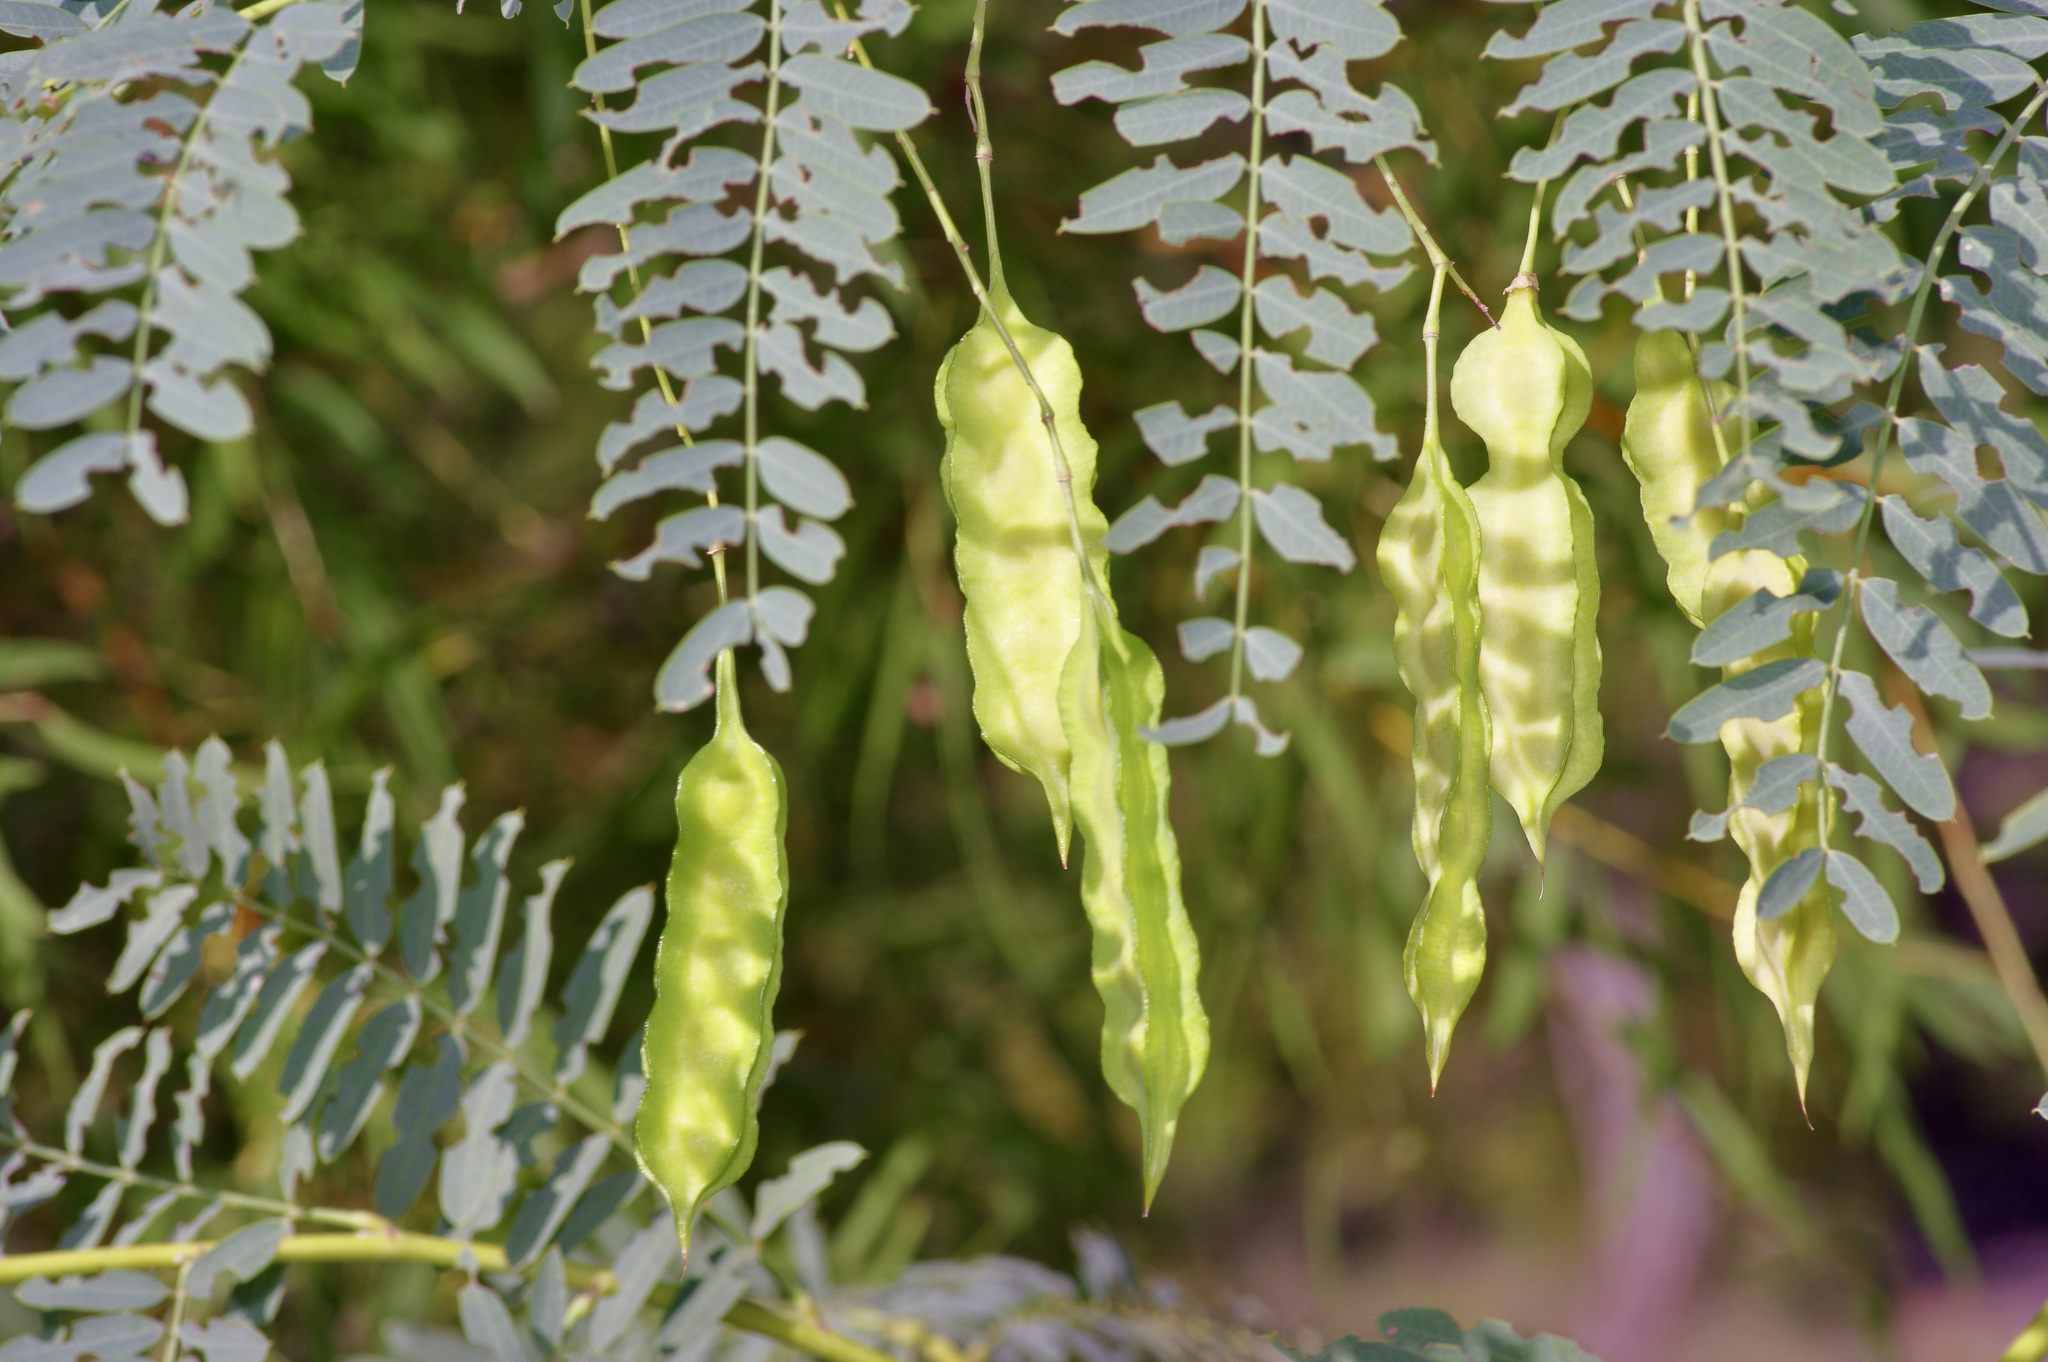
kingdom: Plantae
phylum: Tracheophyta
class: Magnoliopsida
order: Fabales
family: Fabaceae
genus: Sesbania
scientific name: Sesbania drummondii
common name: Poison-bean
